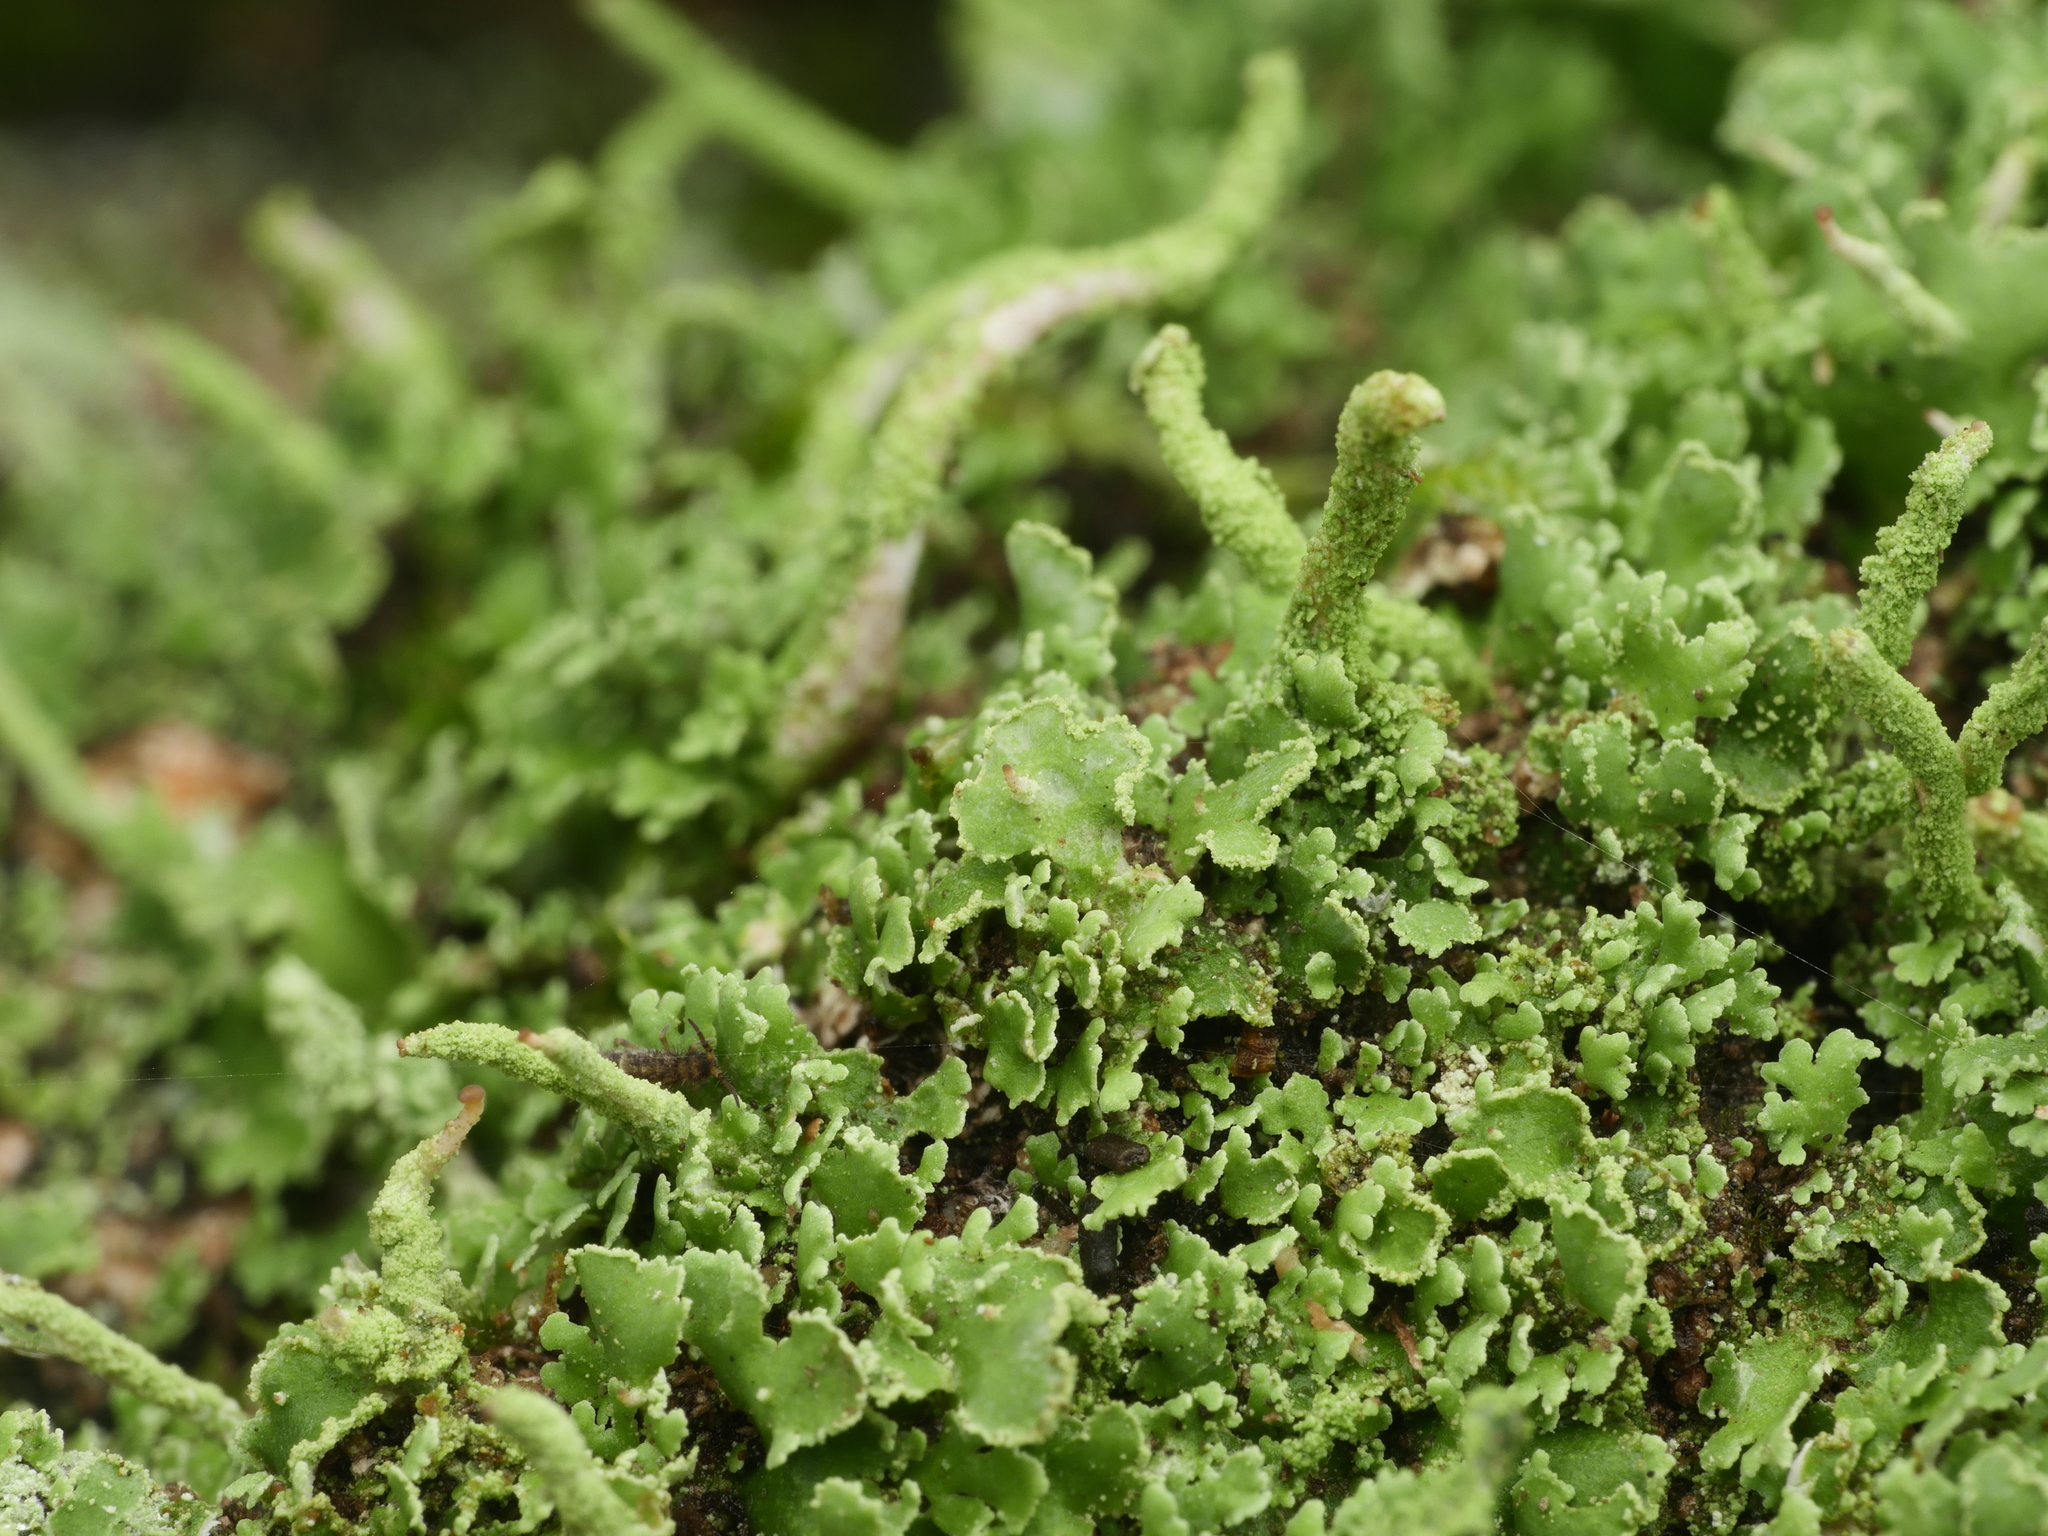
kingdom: Fungi
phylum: Ascomycota
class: Lecanoromycetes
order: Lecanorales
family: Cladoniaceae
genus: Cladonia
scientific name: Cladonia ochrochlora
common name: Smooth-footed powderhorn
